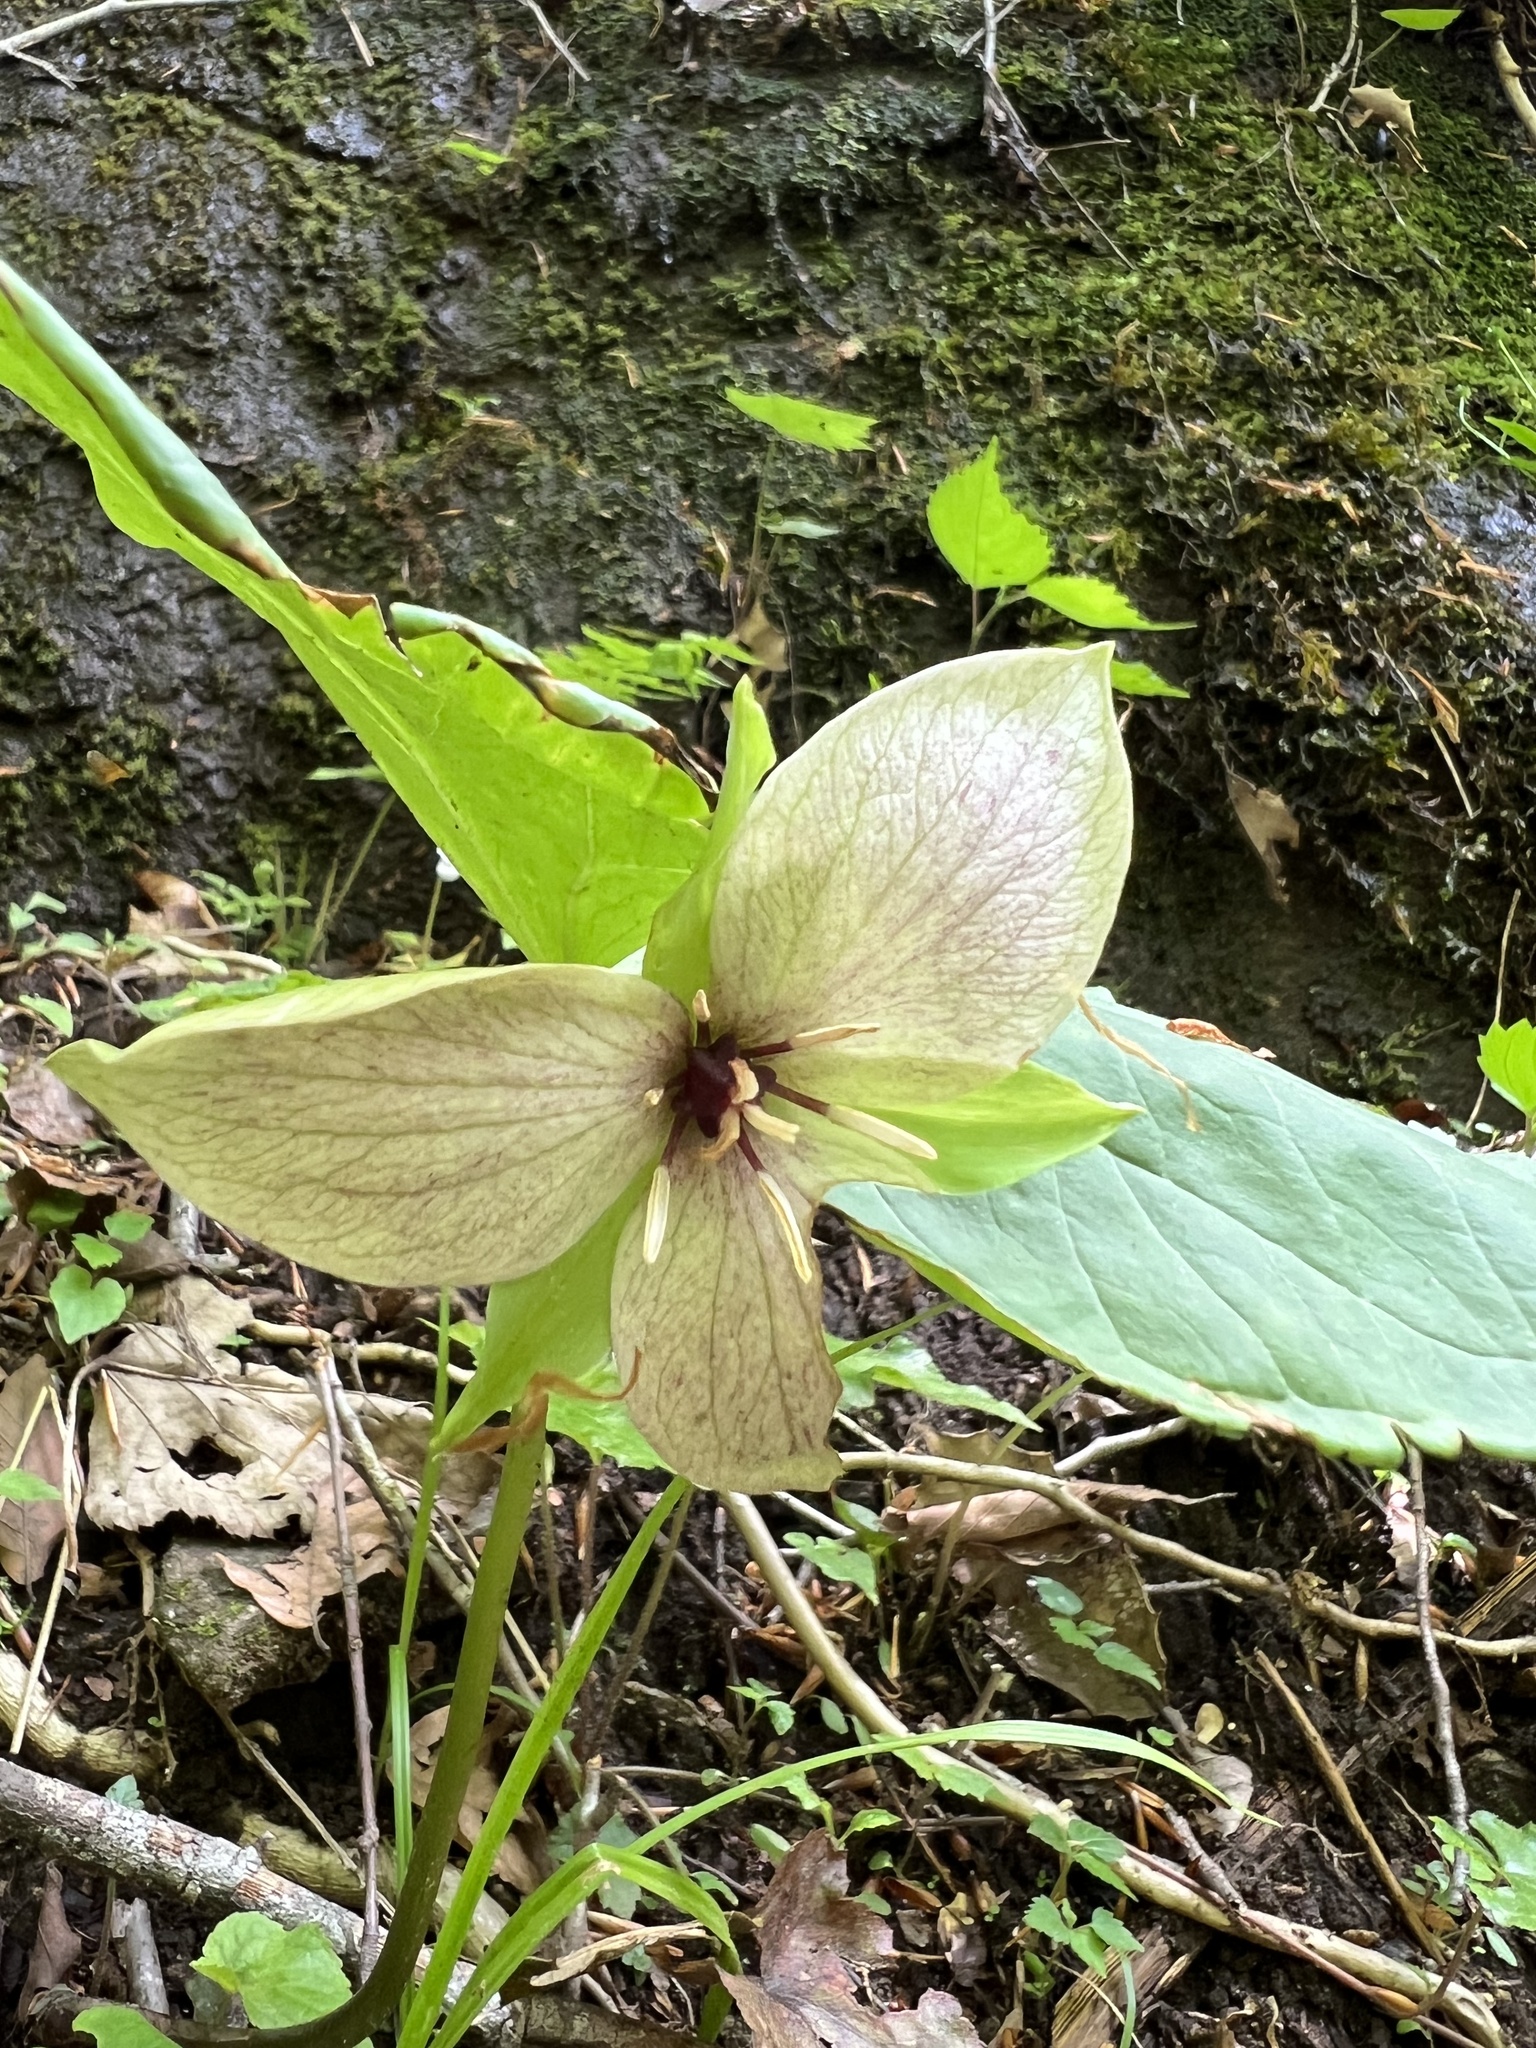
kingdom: Plantae
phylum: Tracheophyta
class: Liliopsida
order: Liliales
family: Melanthiaceae
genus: Trillium
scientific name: Trillium vaseyi
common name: Sweet trillium
